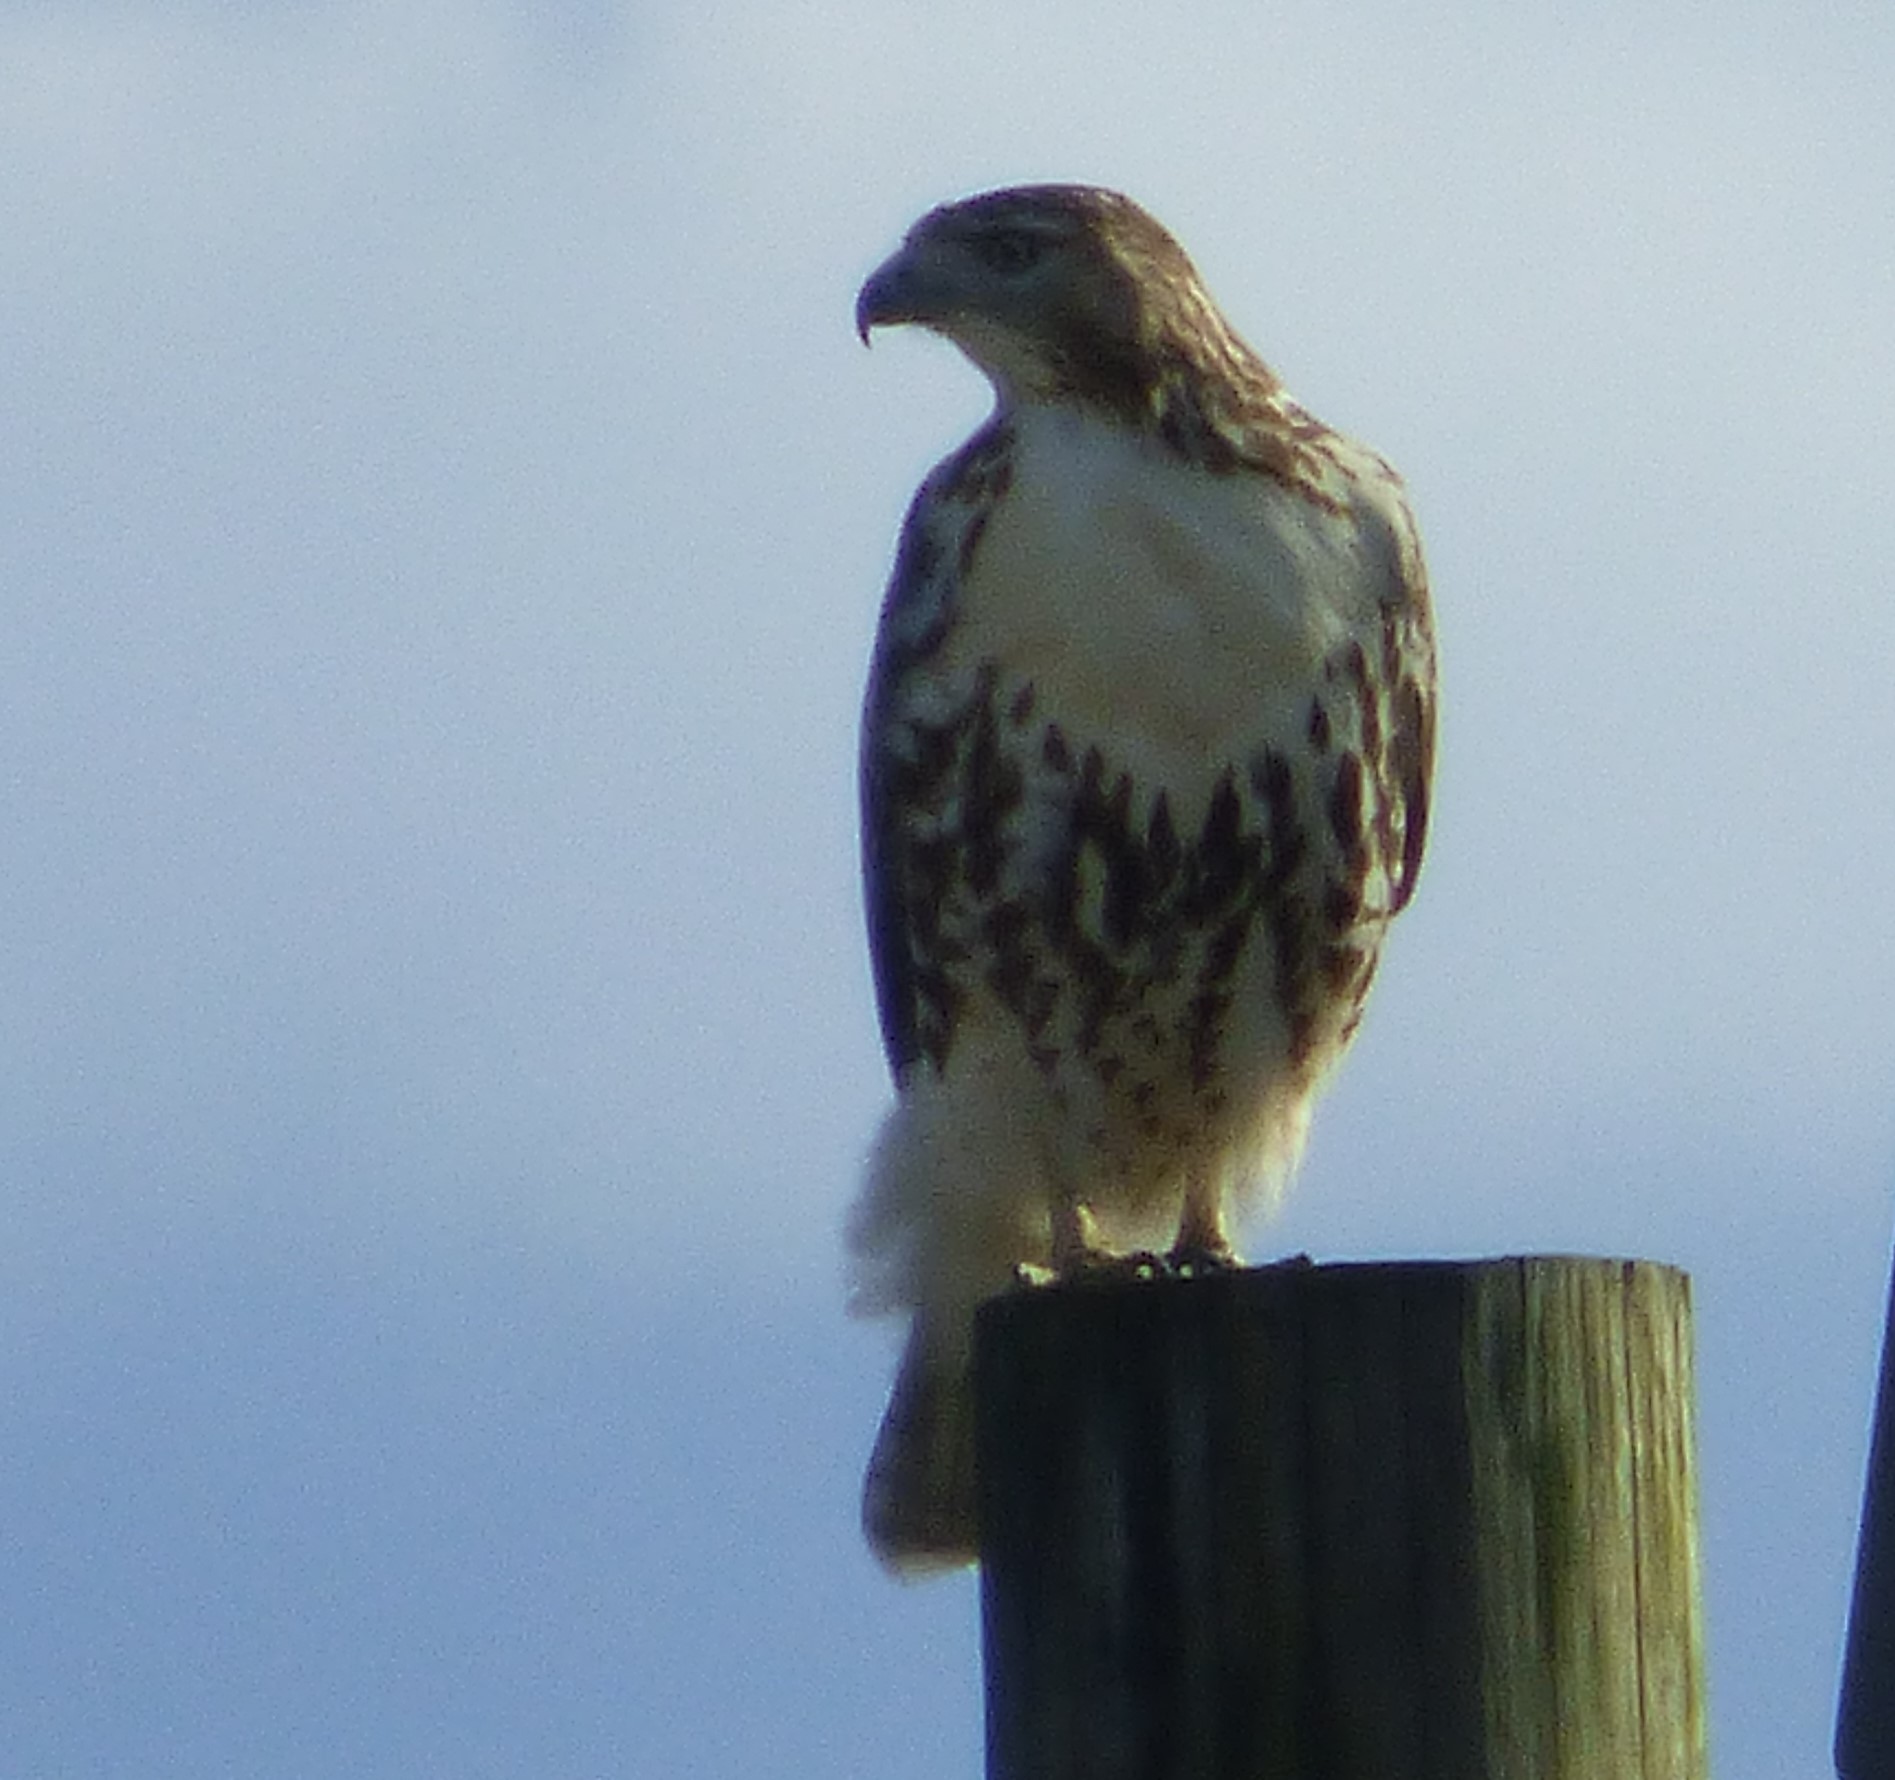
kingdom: Animalia
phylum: Chordata
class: Aves
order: Accipitriformes
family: Accipitridae
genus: Buteo
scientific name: Buteo jamaicensis
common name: Red-tailed hawk
